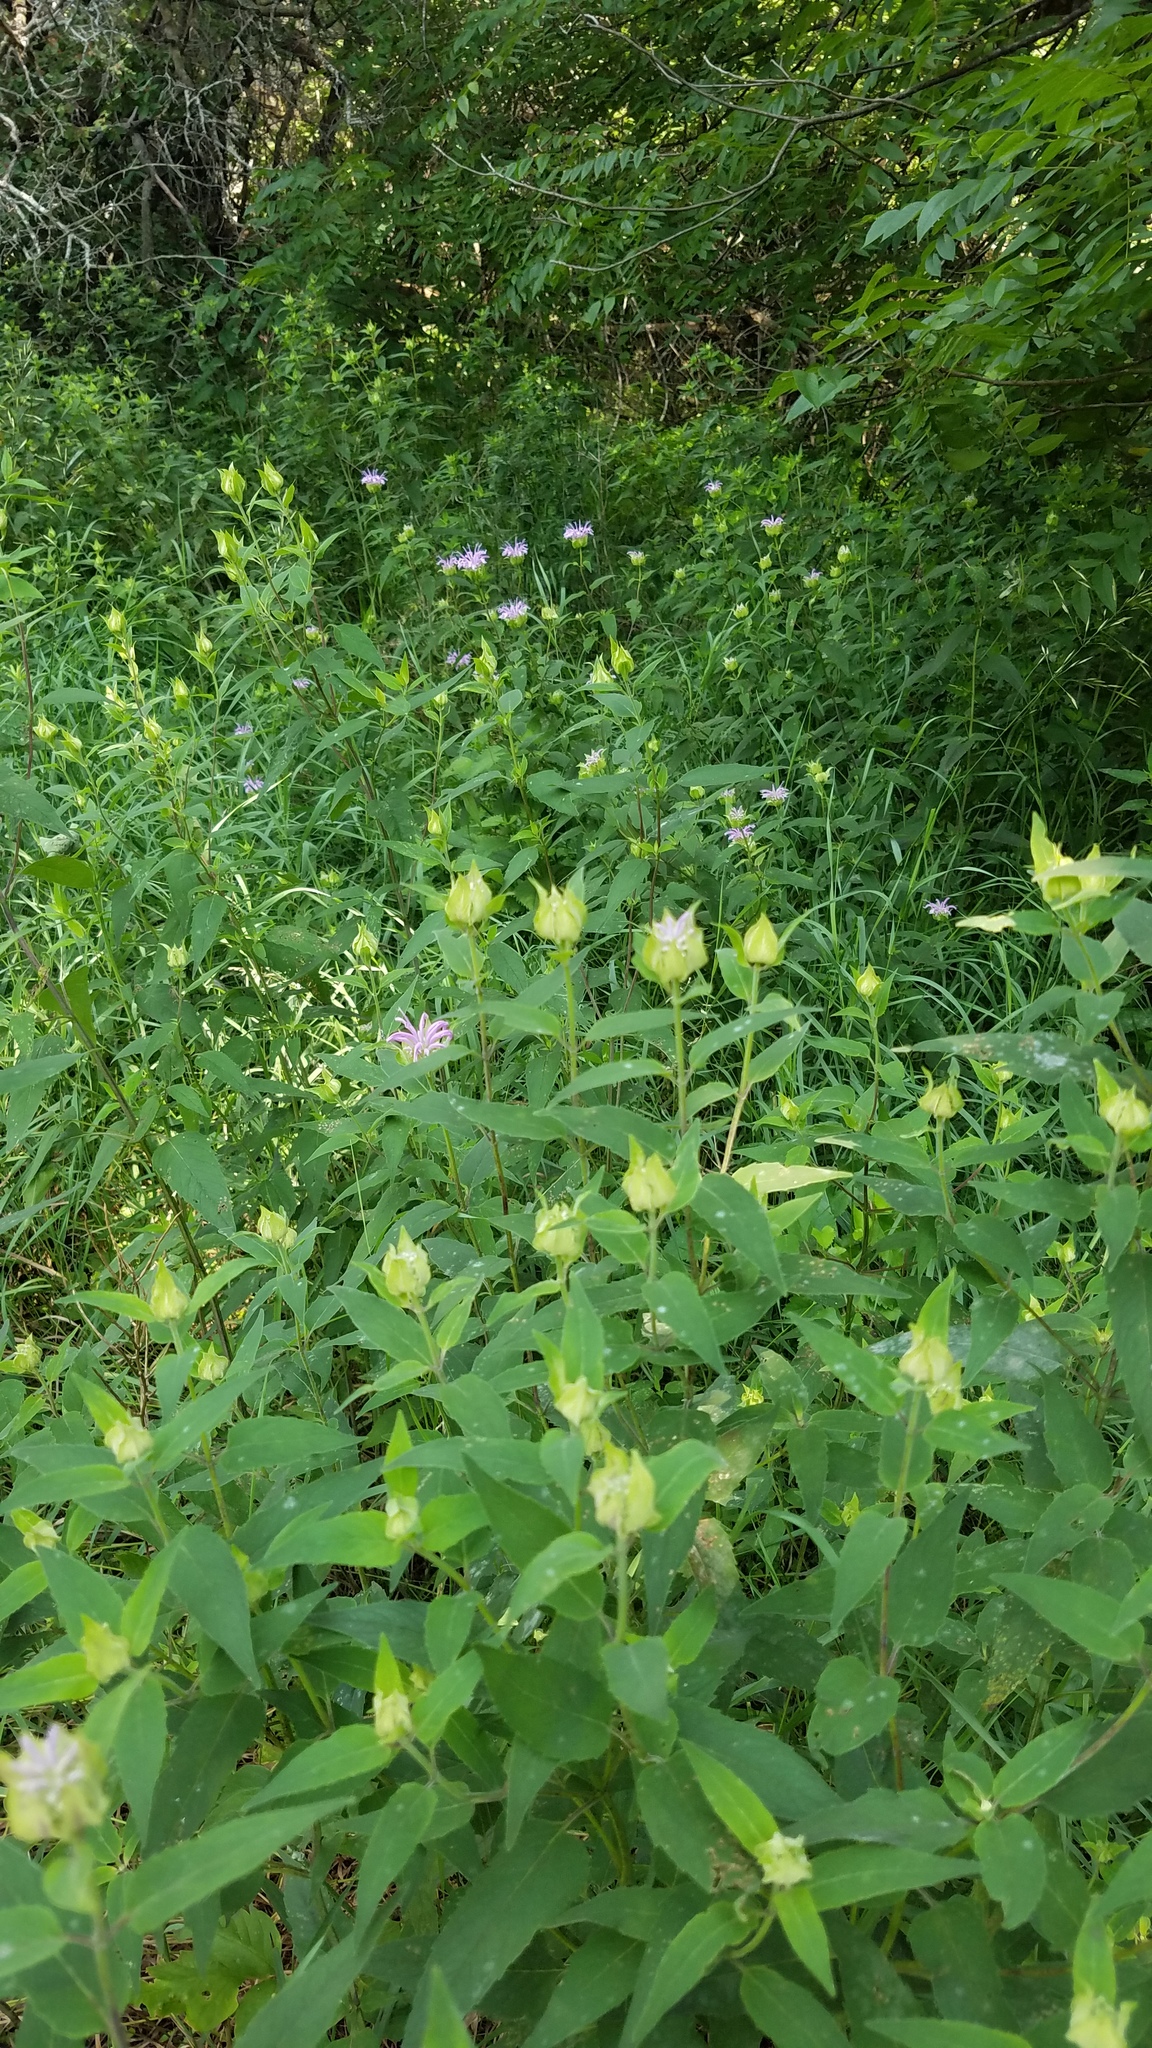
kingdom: Plantae
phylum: Tracheophyta
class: Magnoliopsida
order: Lamiales
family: Lamiaceae
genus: Monarda
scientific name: Monarda fistulosa
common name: Purple beebalm
